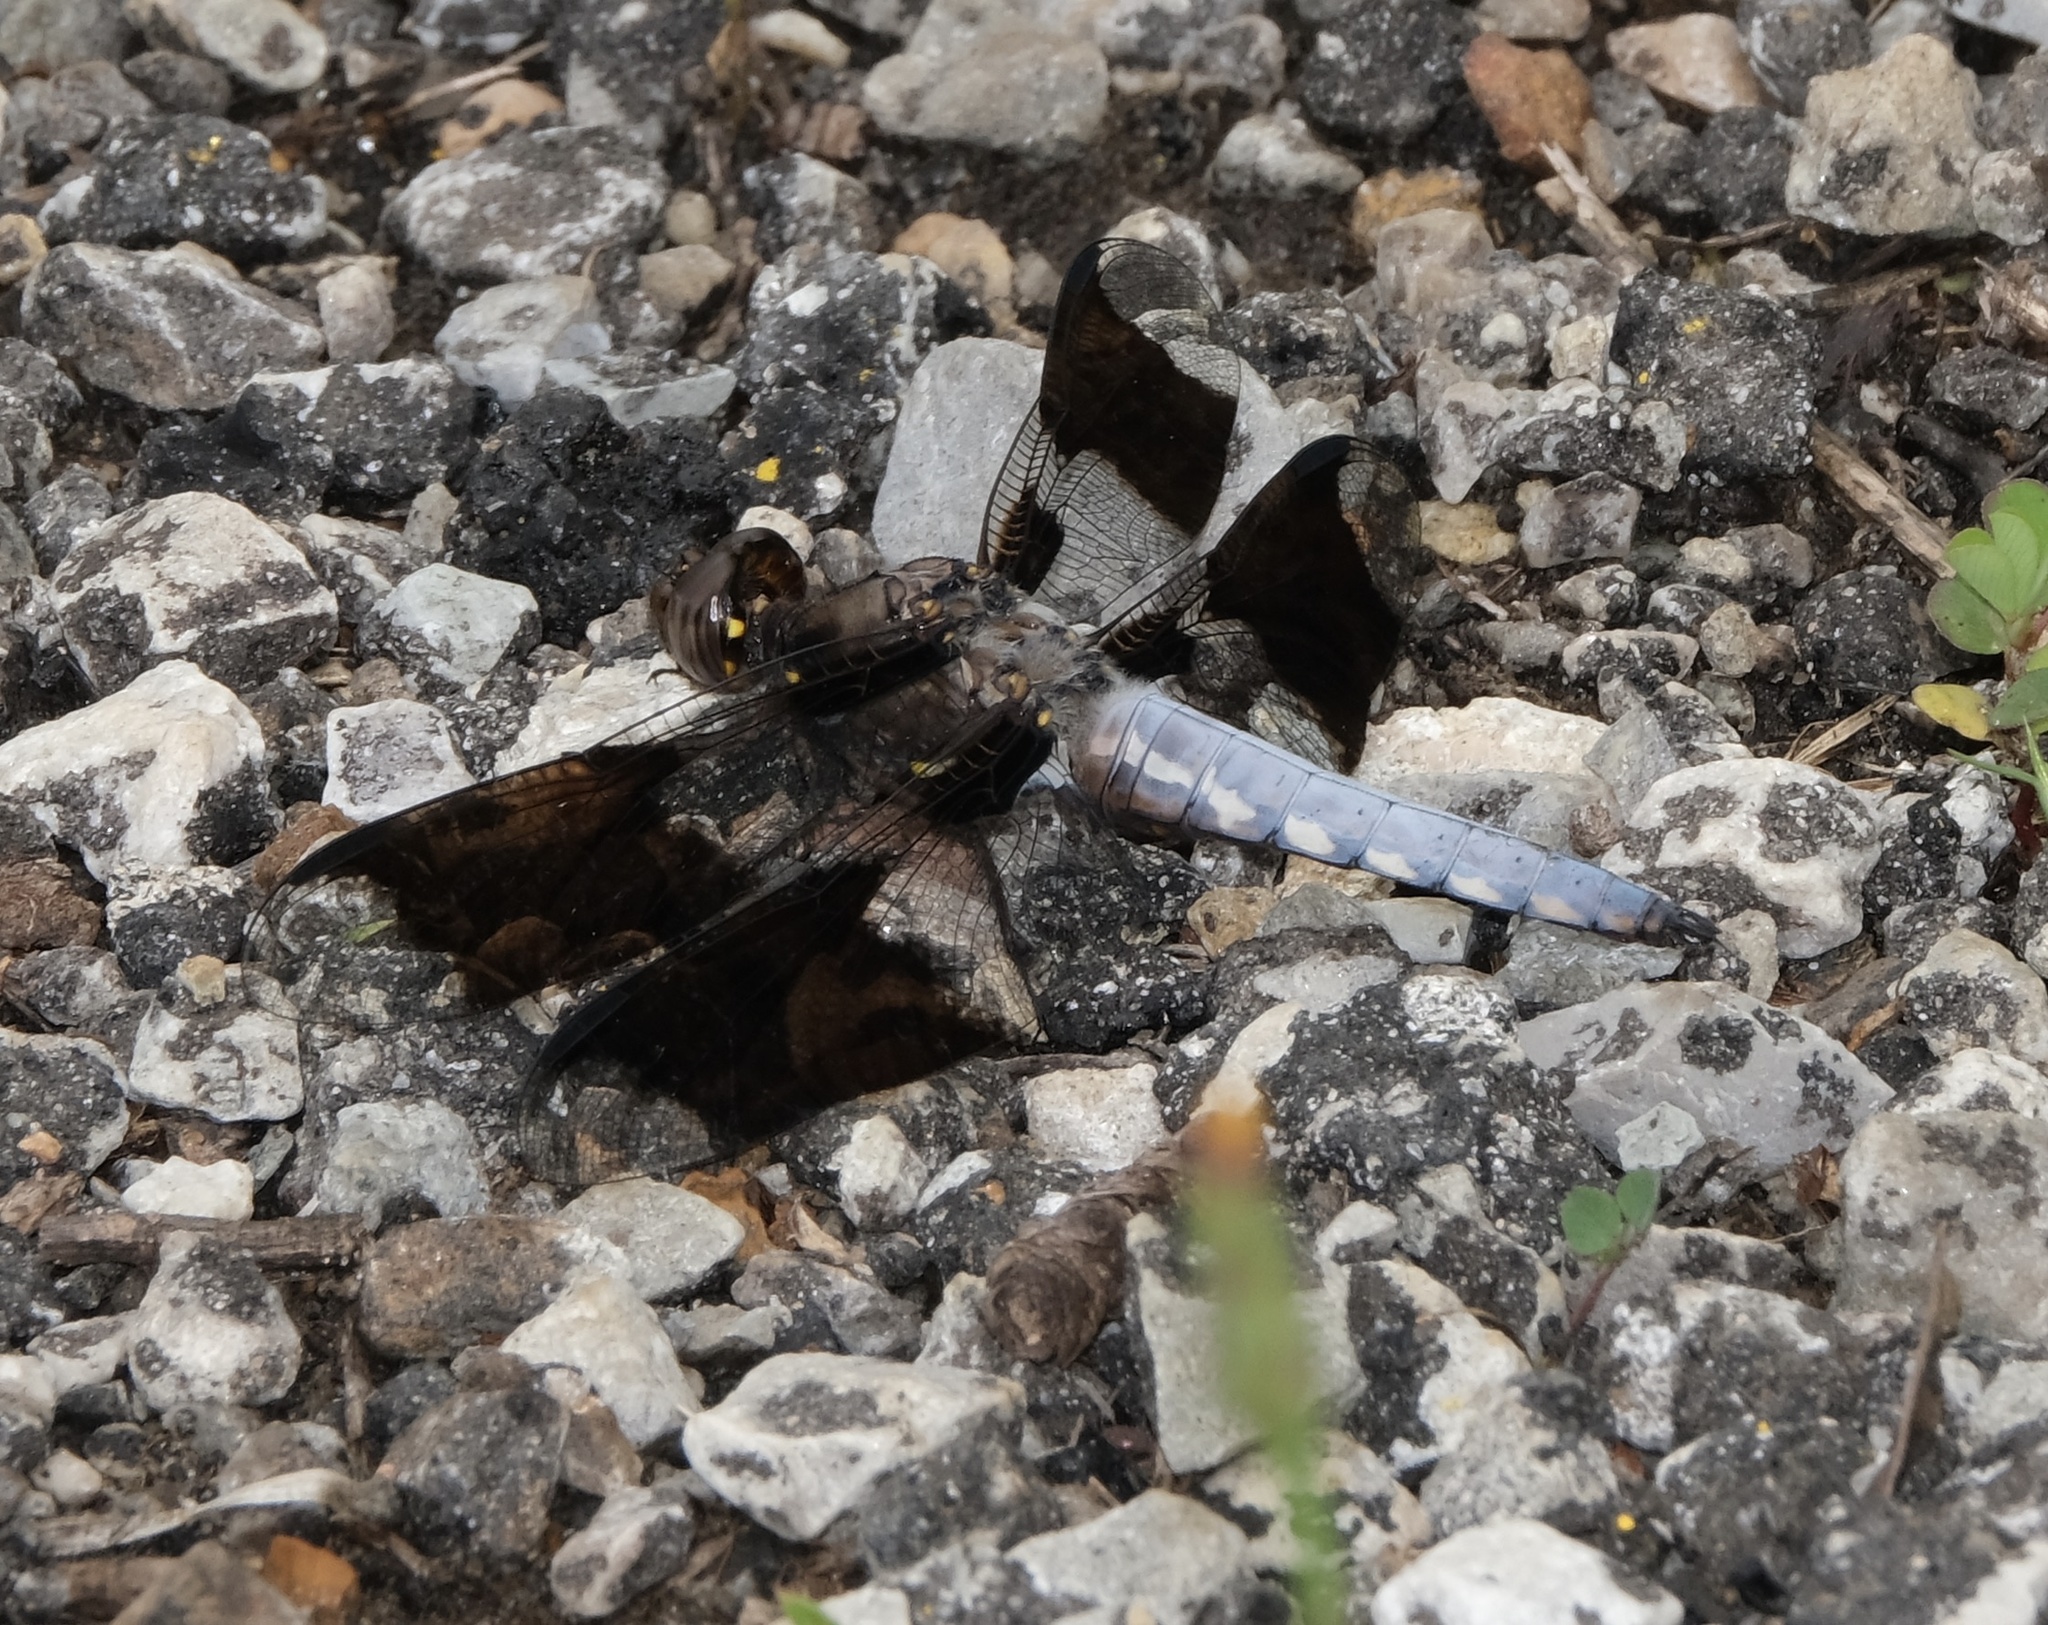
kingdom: Animalia
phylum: Arthropoda
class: Insecta
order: Odonata
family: Libellulidae
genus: Plathemis
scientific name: Plathemis lydia
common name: Common whitetail
